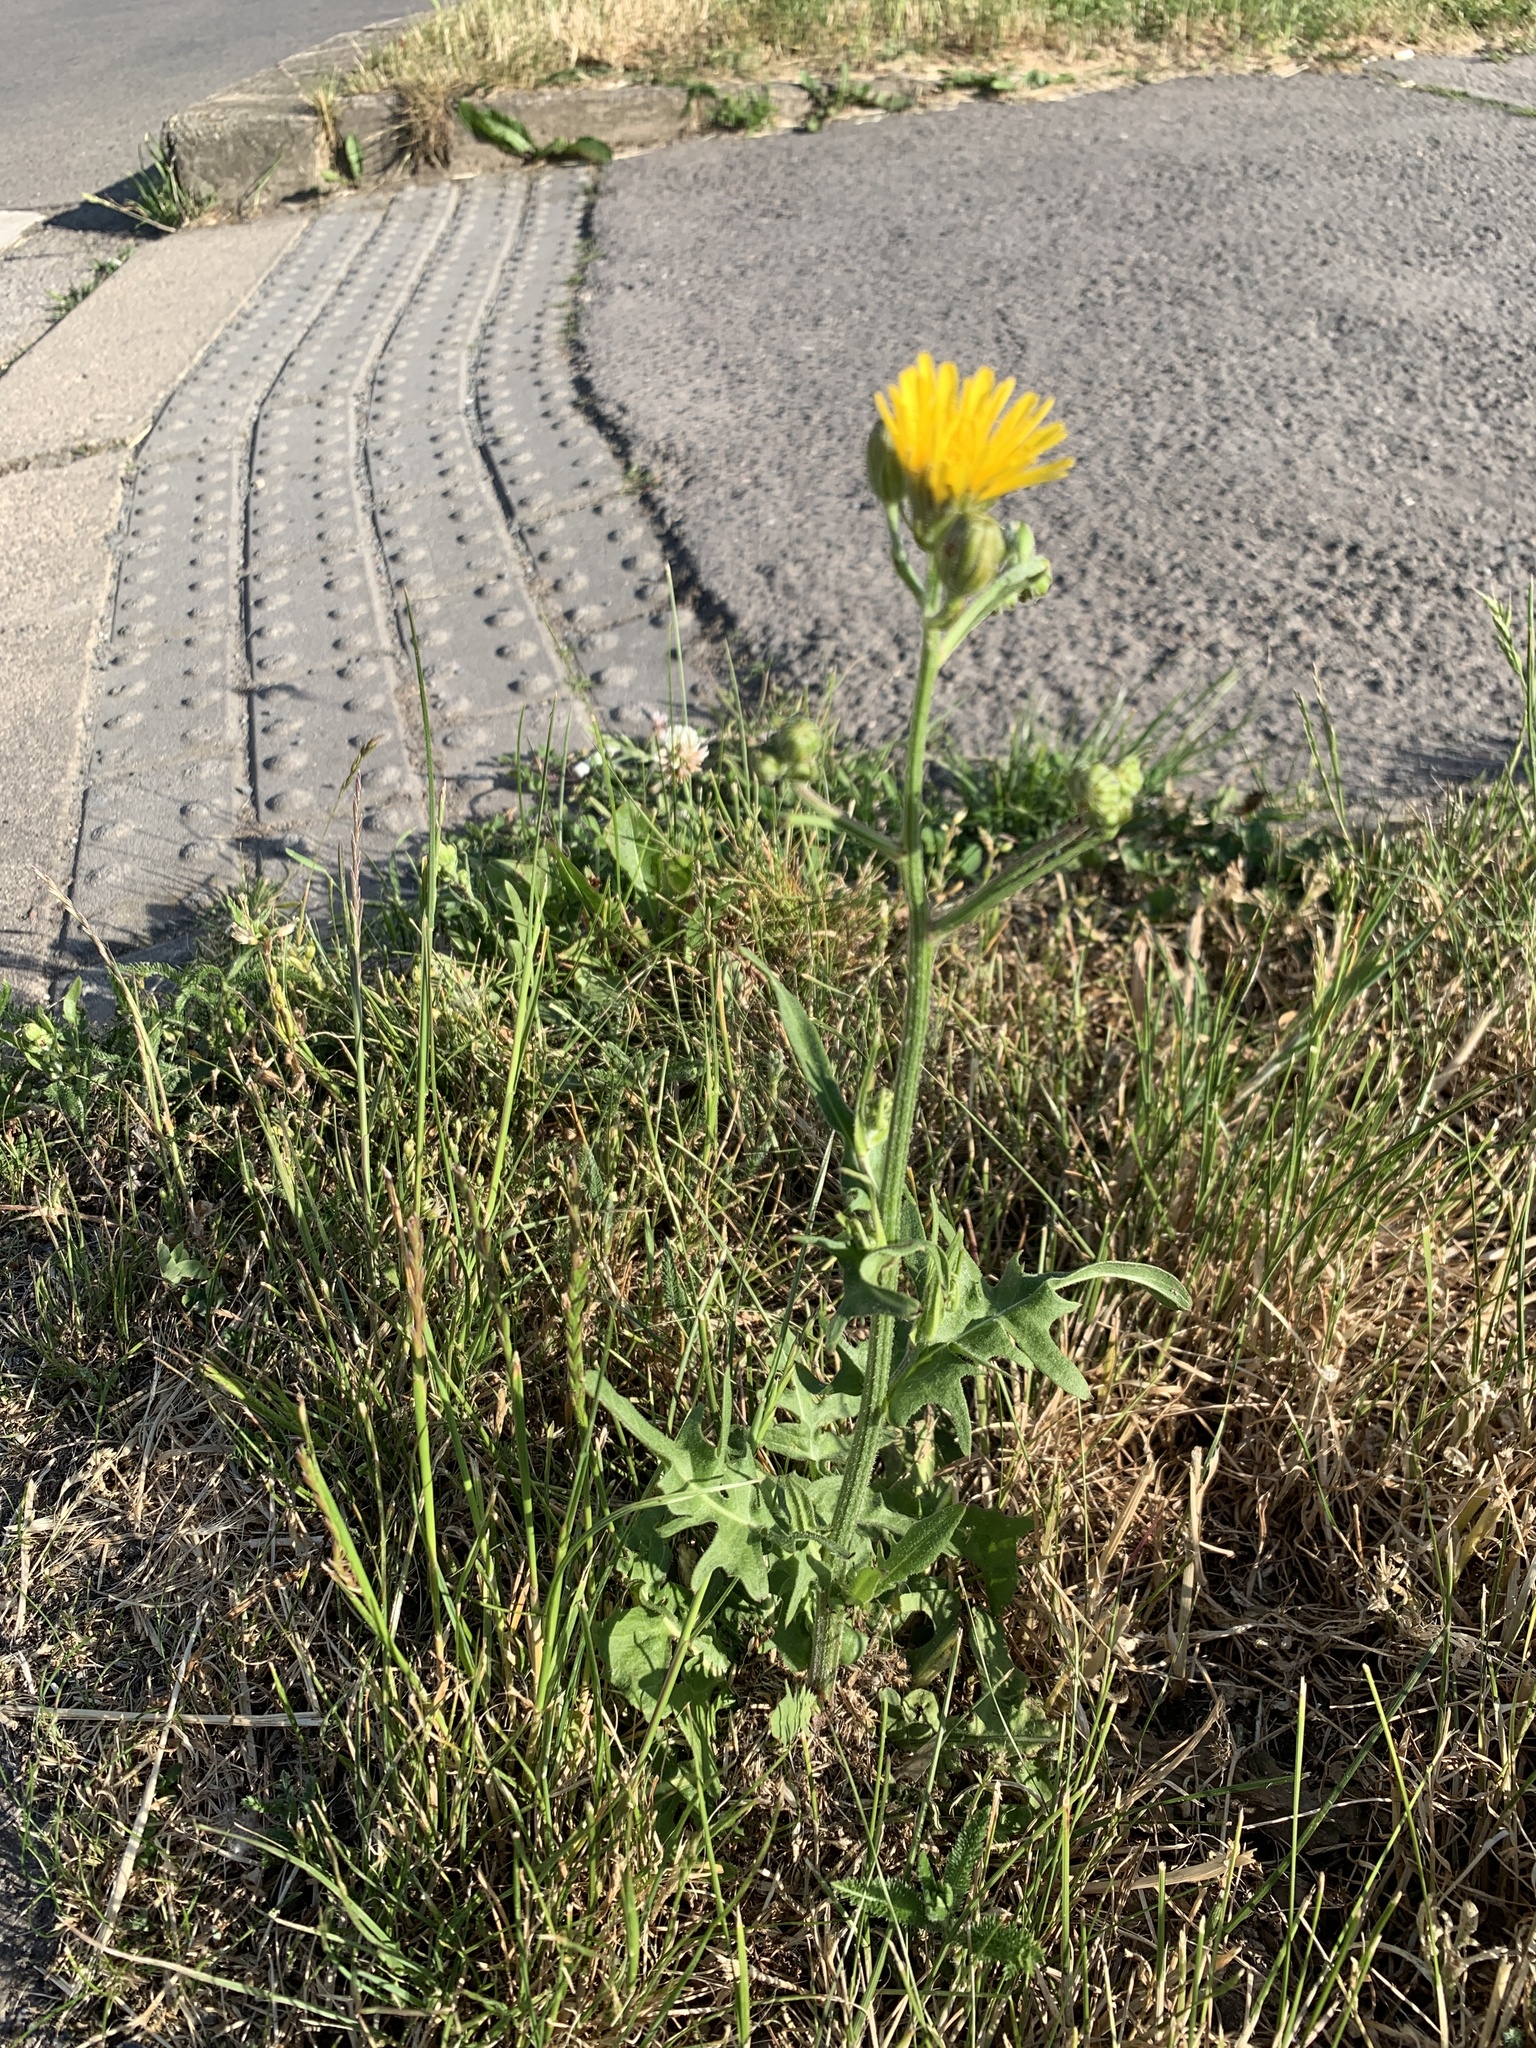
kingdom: Plantae
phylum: Tracheophyta
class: Magnoliopsida
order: Asterales
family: Asteraceae
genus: Crepis
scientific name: Crepis biennis
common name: Rough hawk's-beard
